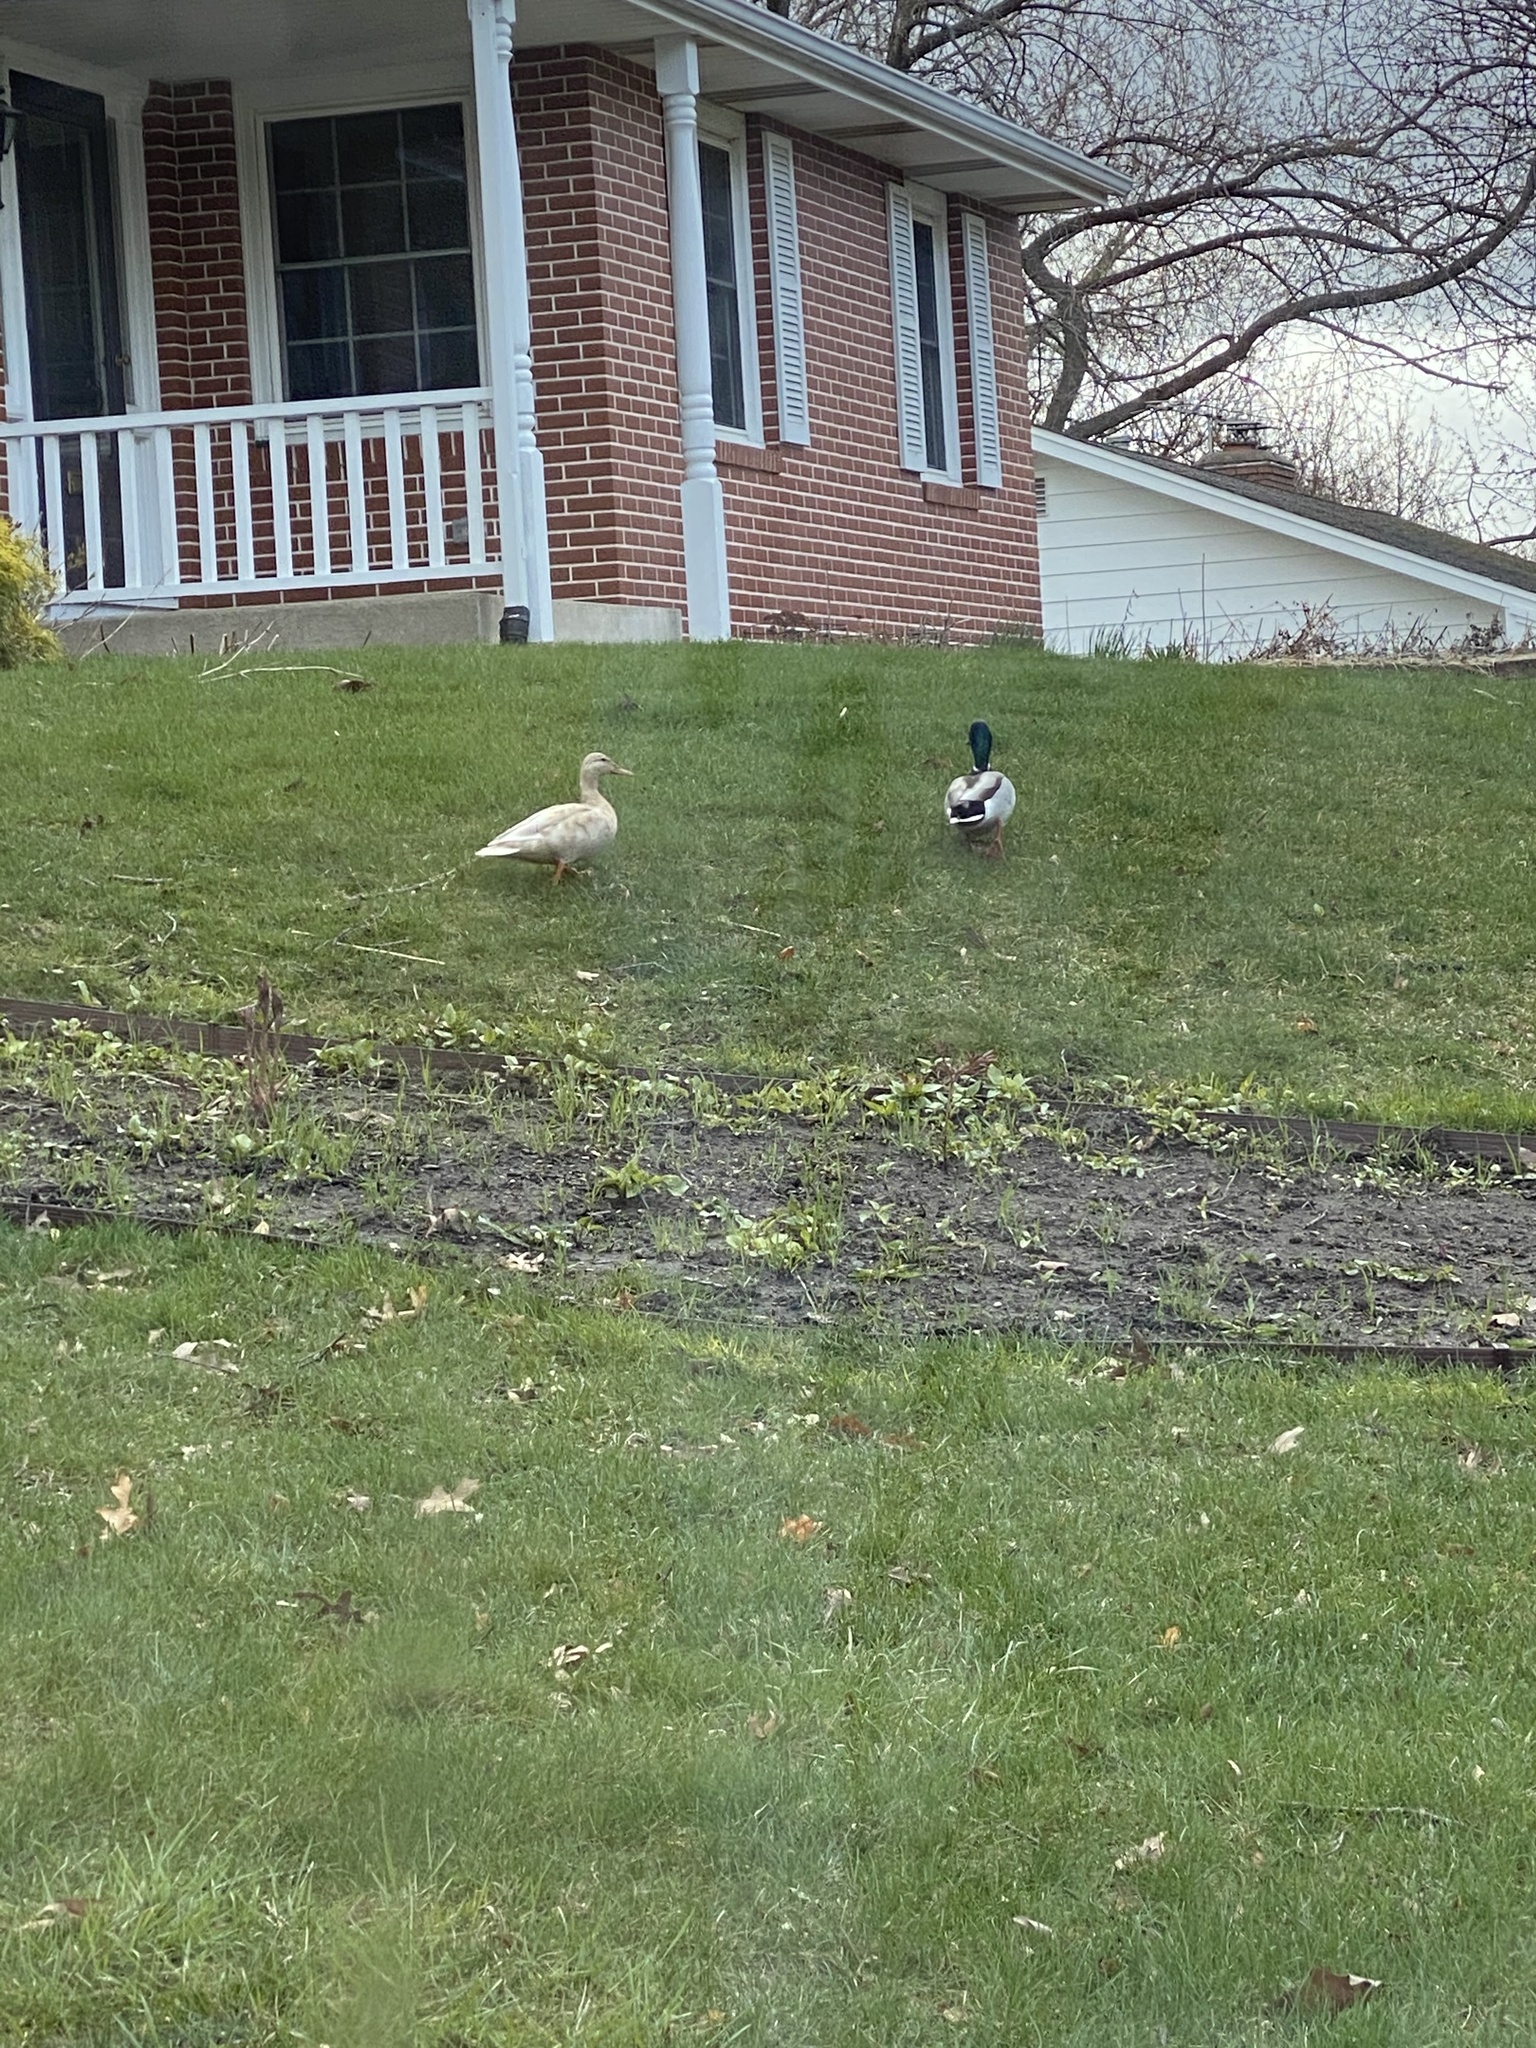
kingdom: Animalia
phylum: Chordata
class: Aves
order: Anseriformes
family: Anatidae
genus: Anas
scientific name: Anas platyrhynchos
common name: Mallard
